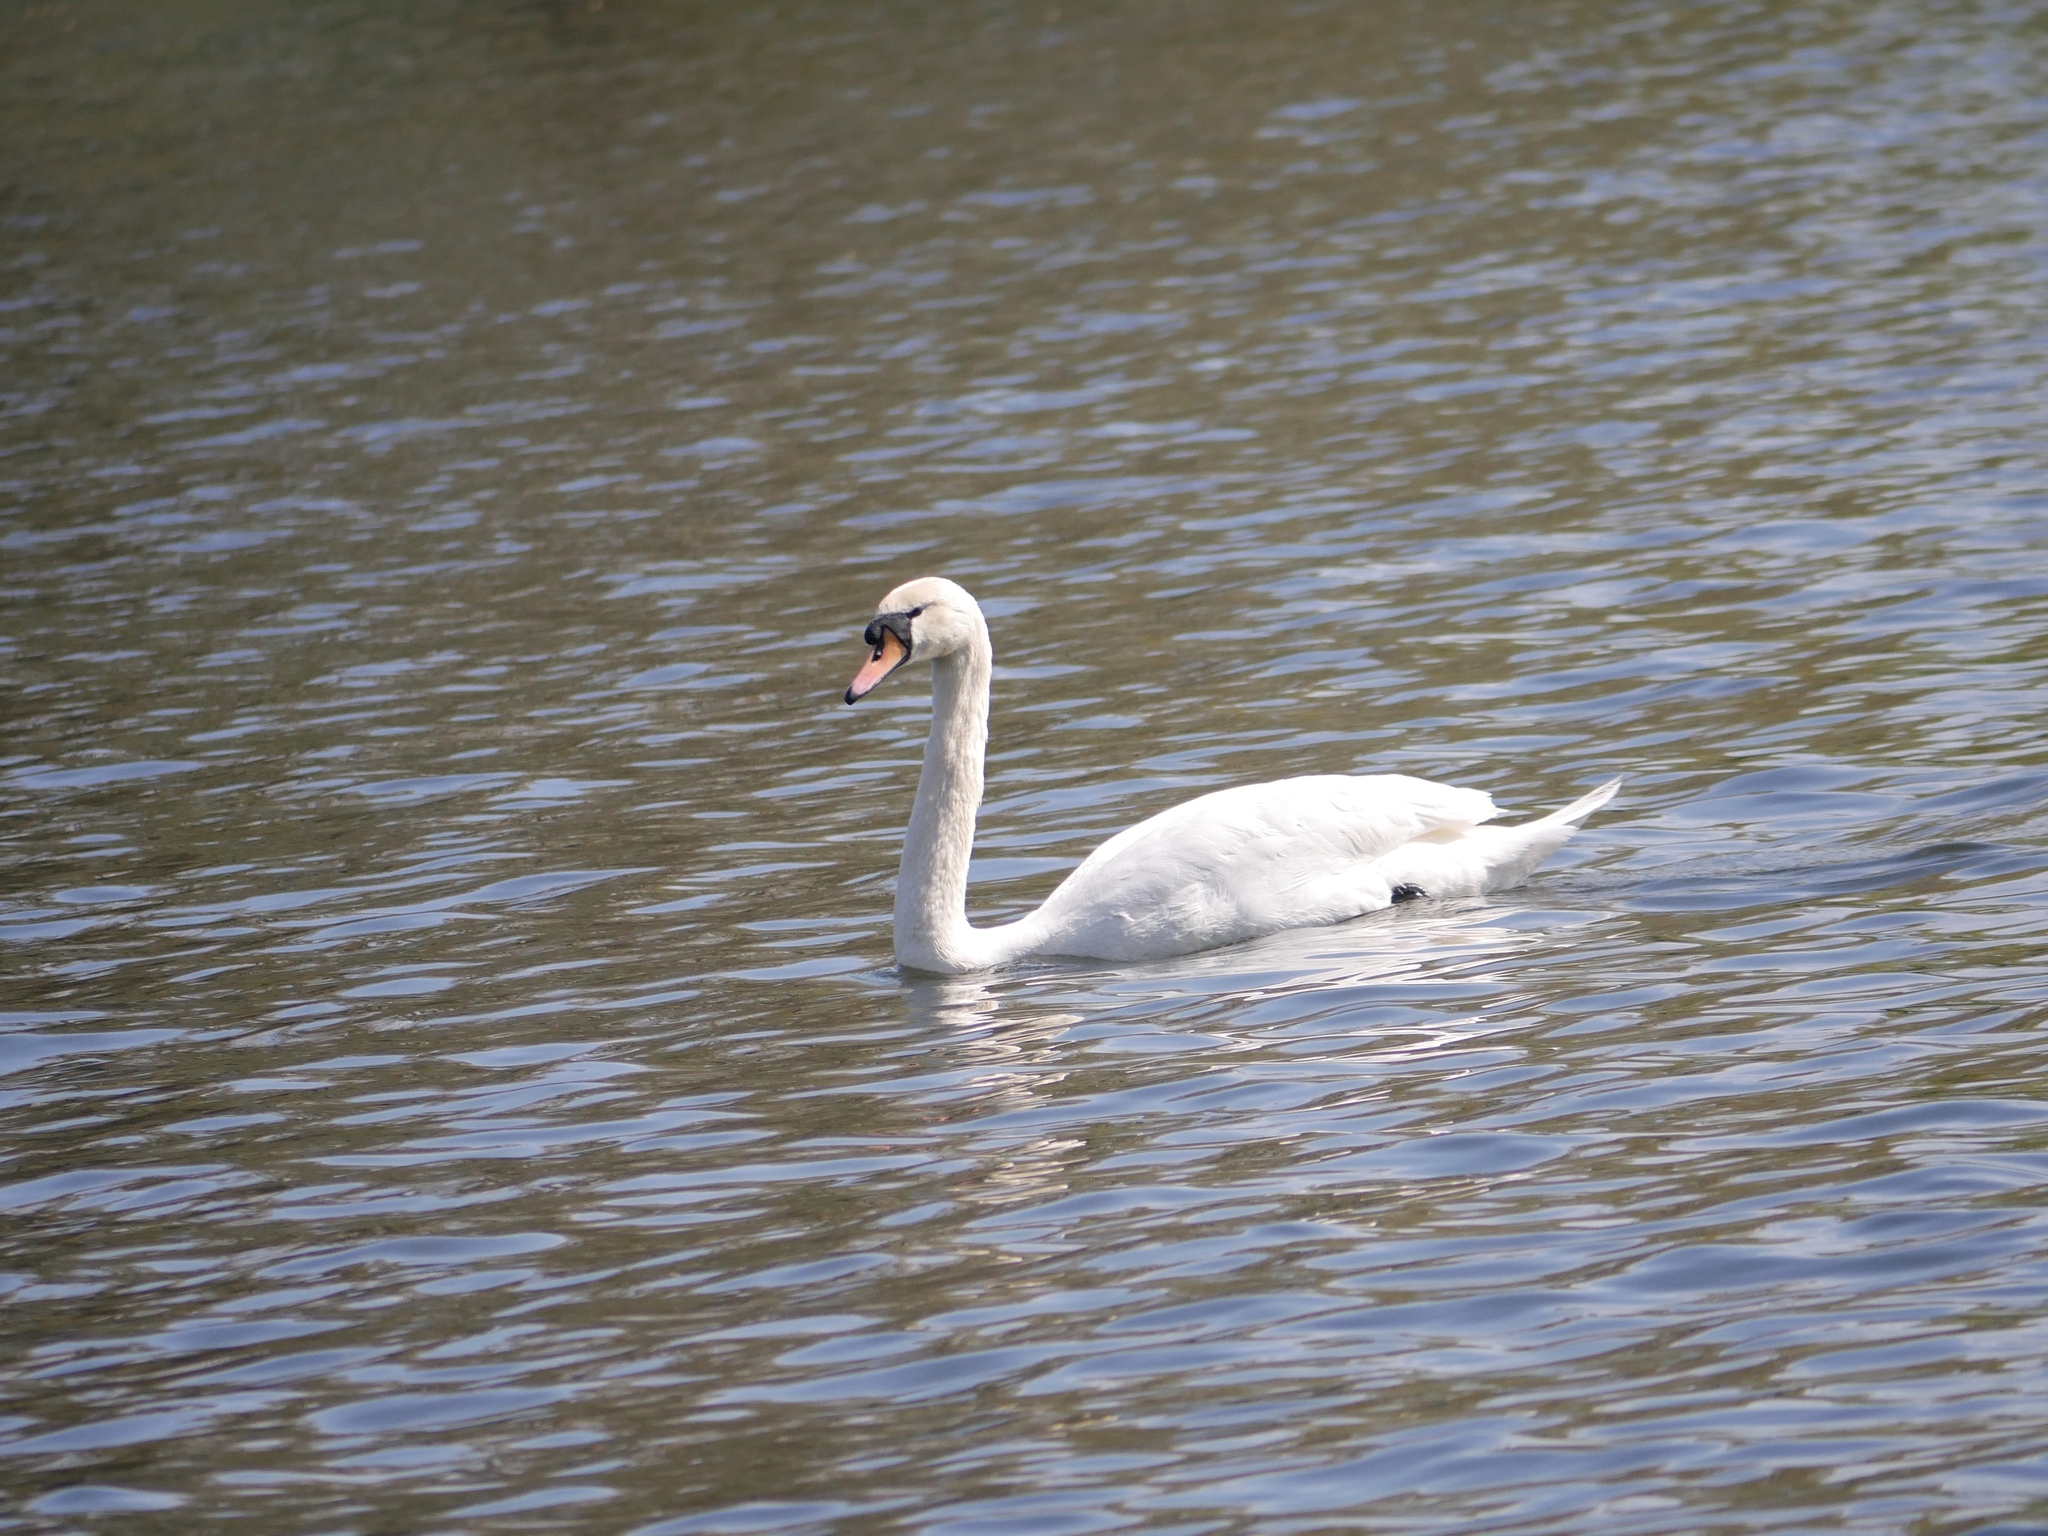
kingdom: Animalia
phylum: Chordata
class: Aves
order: Anseriformes
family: Anatidae
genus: Cygnus
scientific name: Cygnus olor
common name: Mute swan
